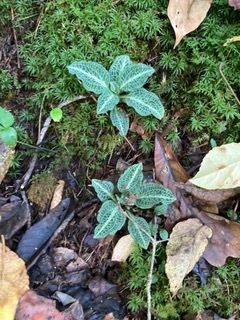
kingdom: Plantae
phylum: Tracheophyta
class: Liliopsida
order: Asparagales
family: Orchidaceae
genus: Goodyera
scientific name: Goodyera pubescens
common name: Downy rattlesnake-plantain
